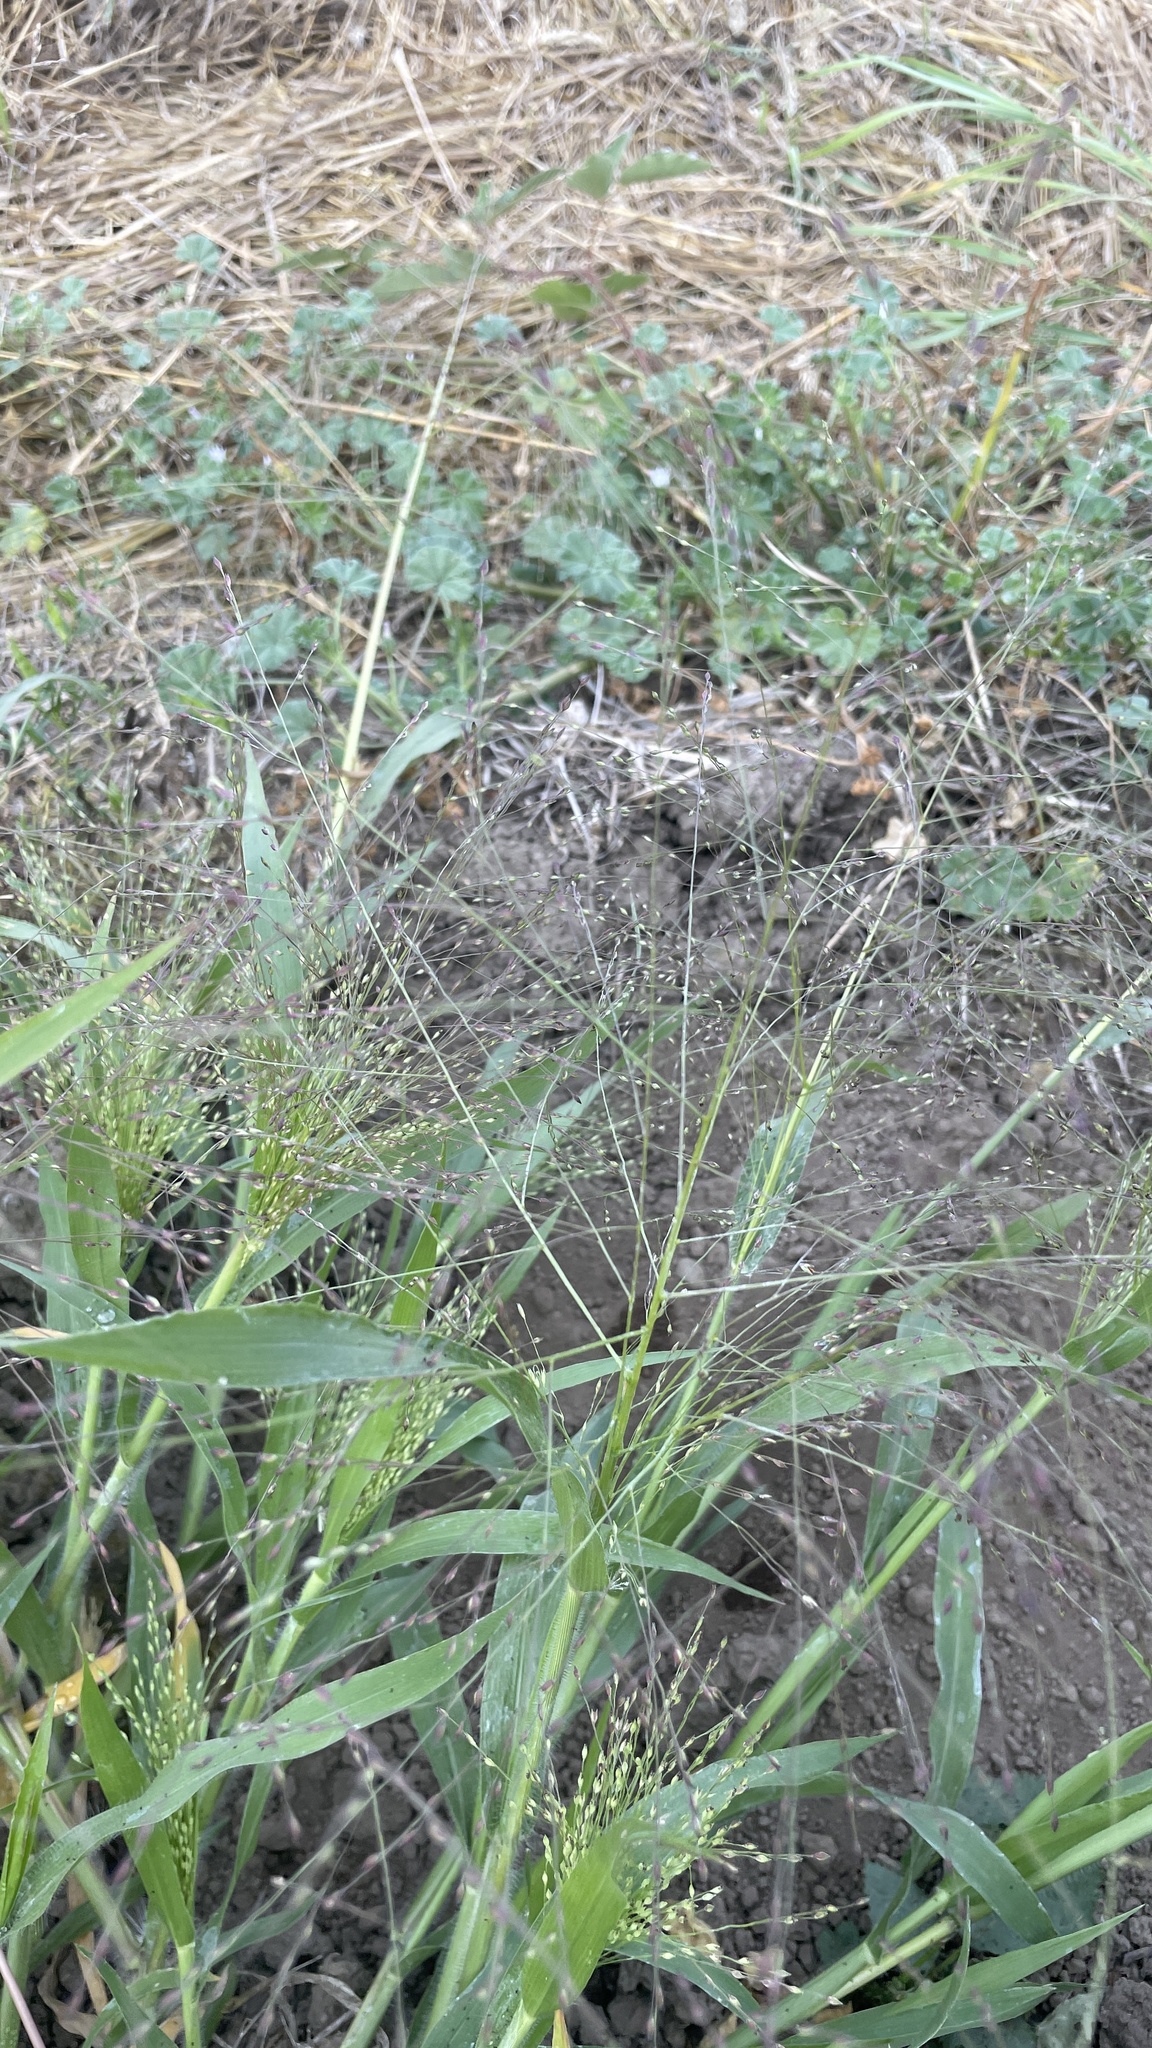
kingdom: Plantae
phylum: Tracheophyta
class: Liliopsida
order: Poales
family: Poaceae
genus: Panicum
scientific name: Panicum capillare
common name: Witch-grass
